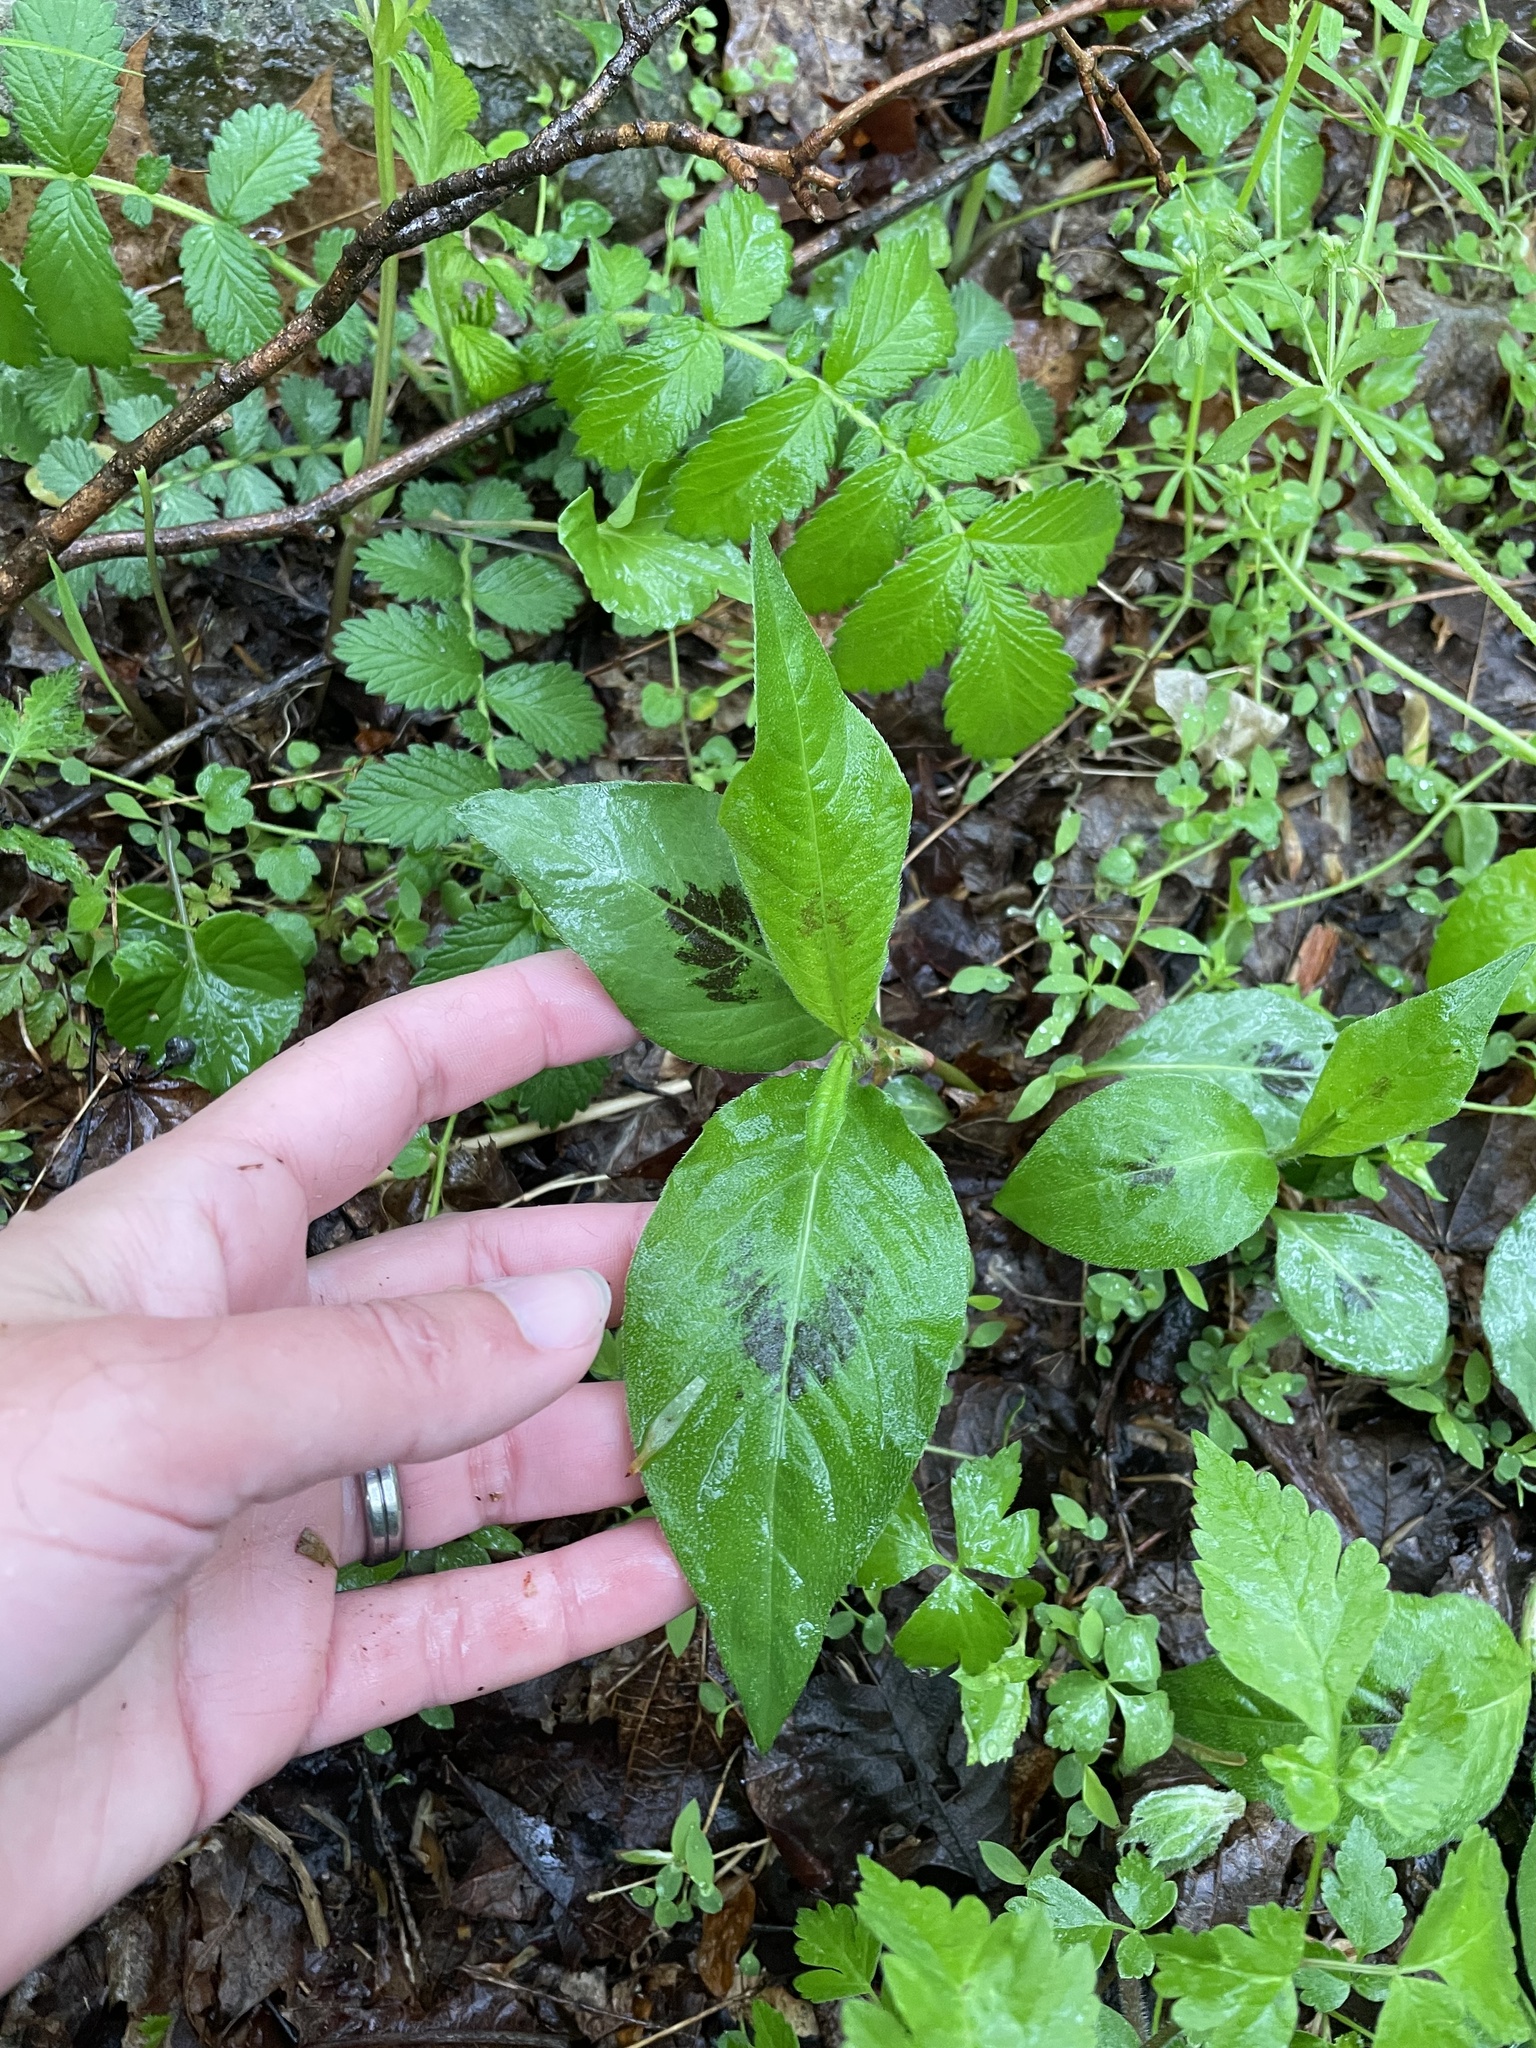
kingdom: Plantae
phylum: Tracheophyta
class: Magnoliopsida
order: Caryophyllales
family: Polygonaceae
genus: Persicaria
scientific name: Persicaria virginiana
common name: Jumpseed
